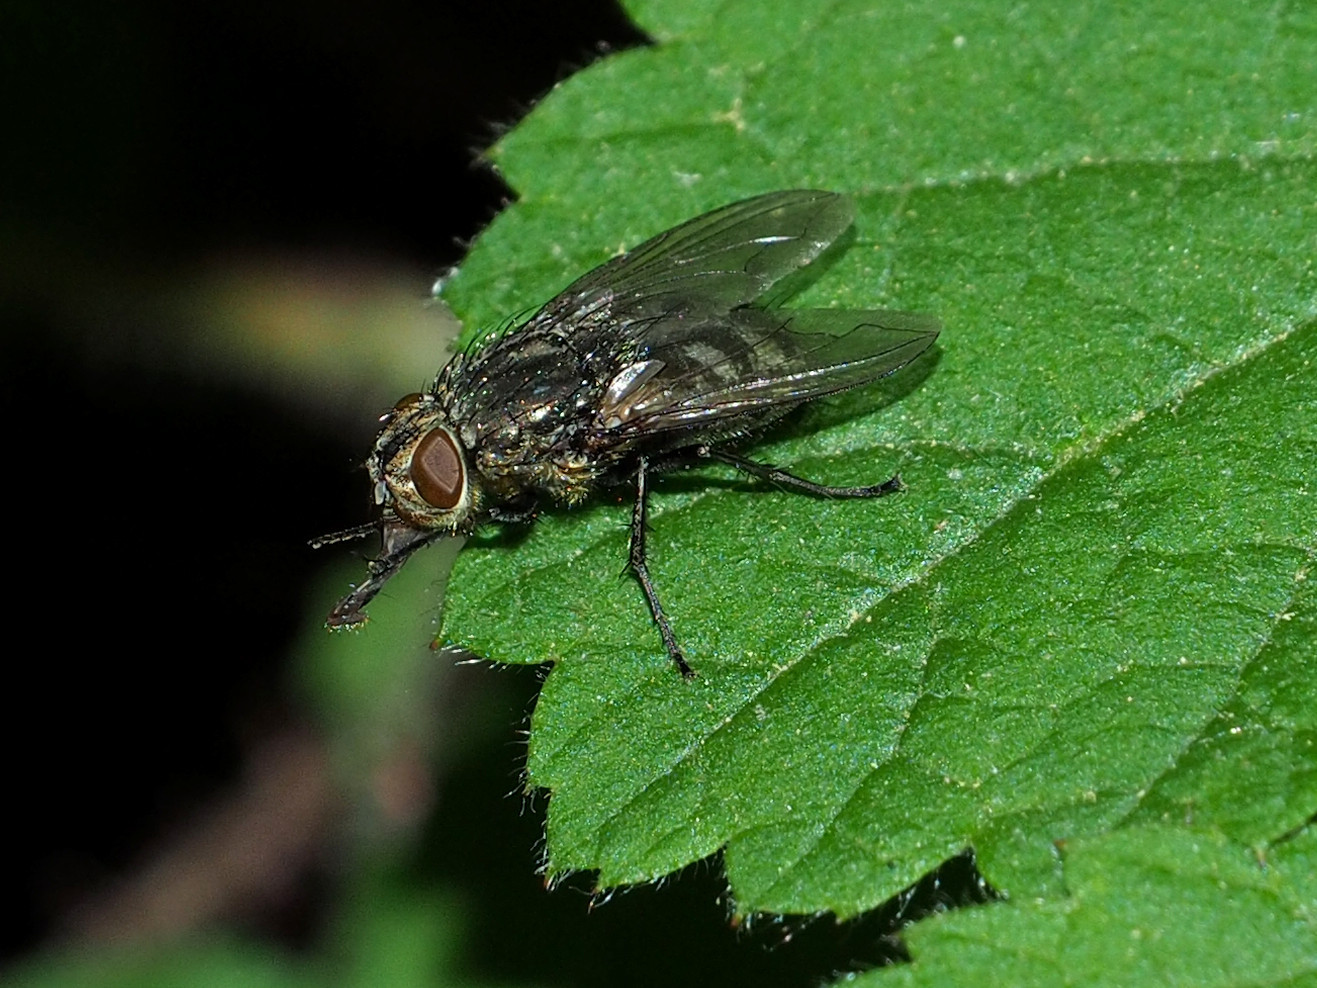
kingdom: Animalia
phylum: Arthropoda
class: Insecta
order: Diptera
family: Polleniidae
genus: Pollenia
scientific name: Pollenia
